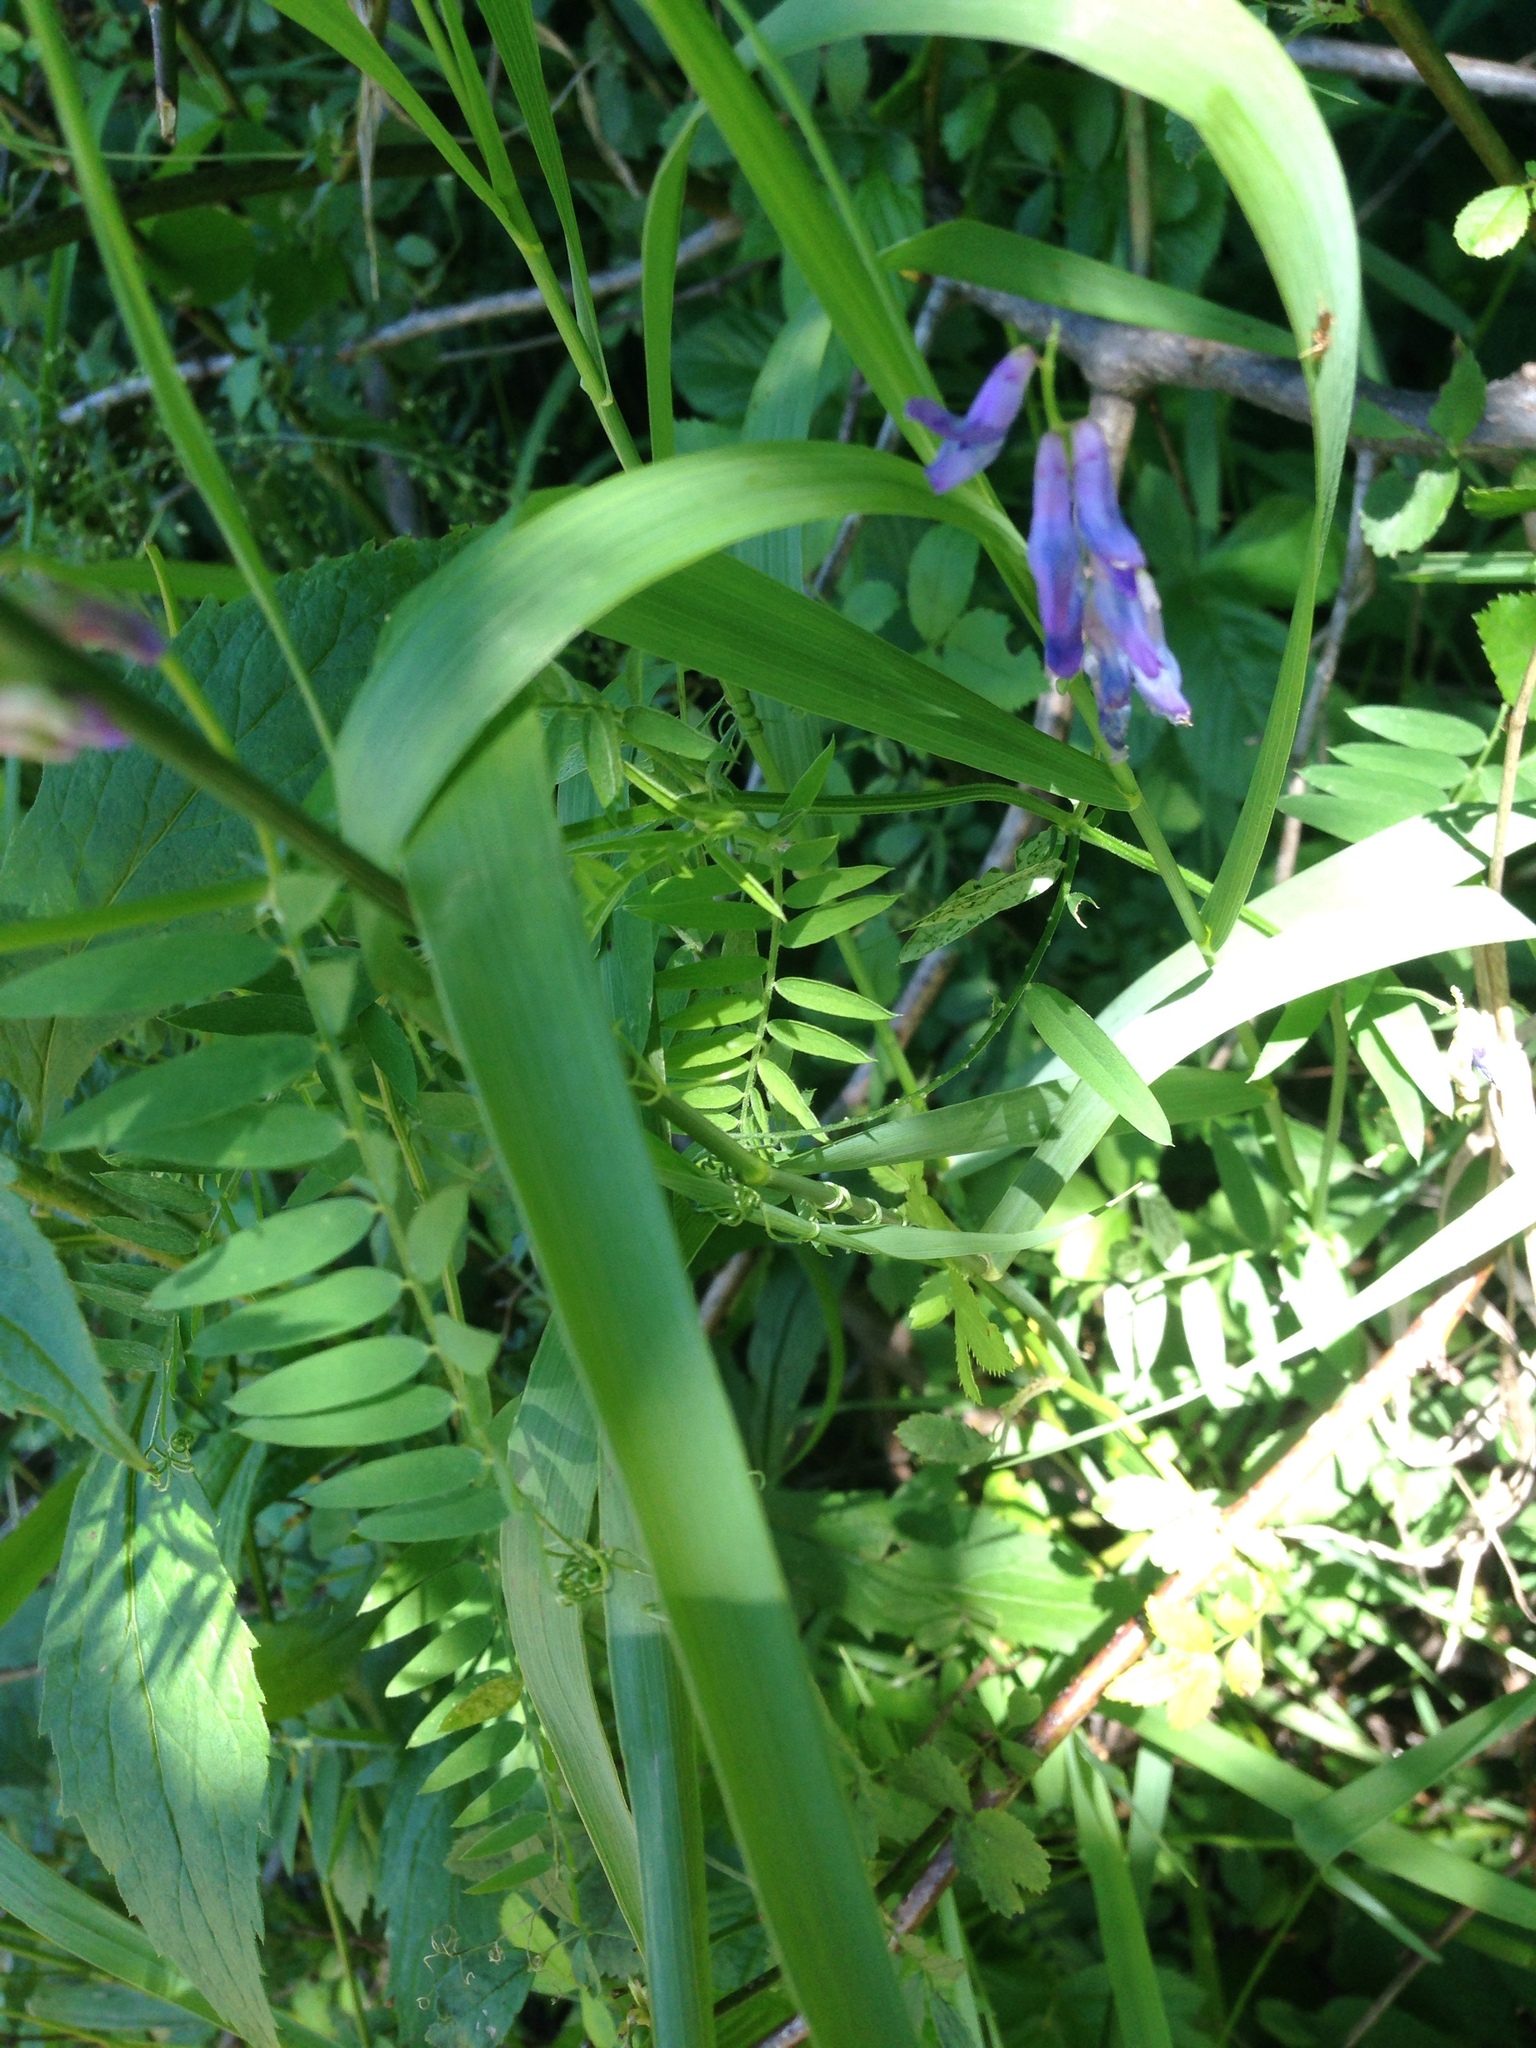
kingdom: Plantae
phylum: Tracheophyta
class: Magnoliopsida
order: Fabales
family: Fabaceae
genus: Vicia
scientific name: Vicia cracca
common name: Bird vetch
